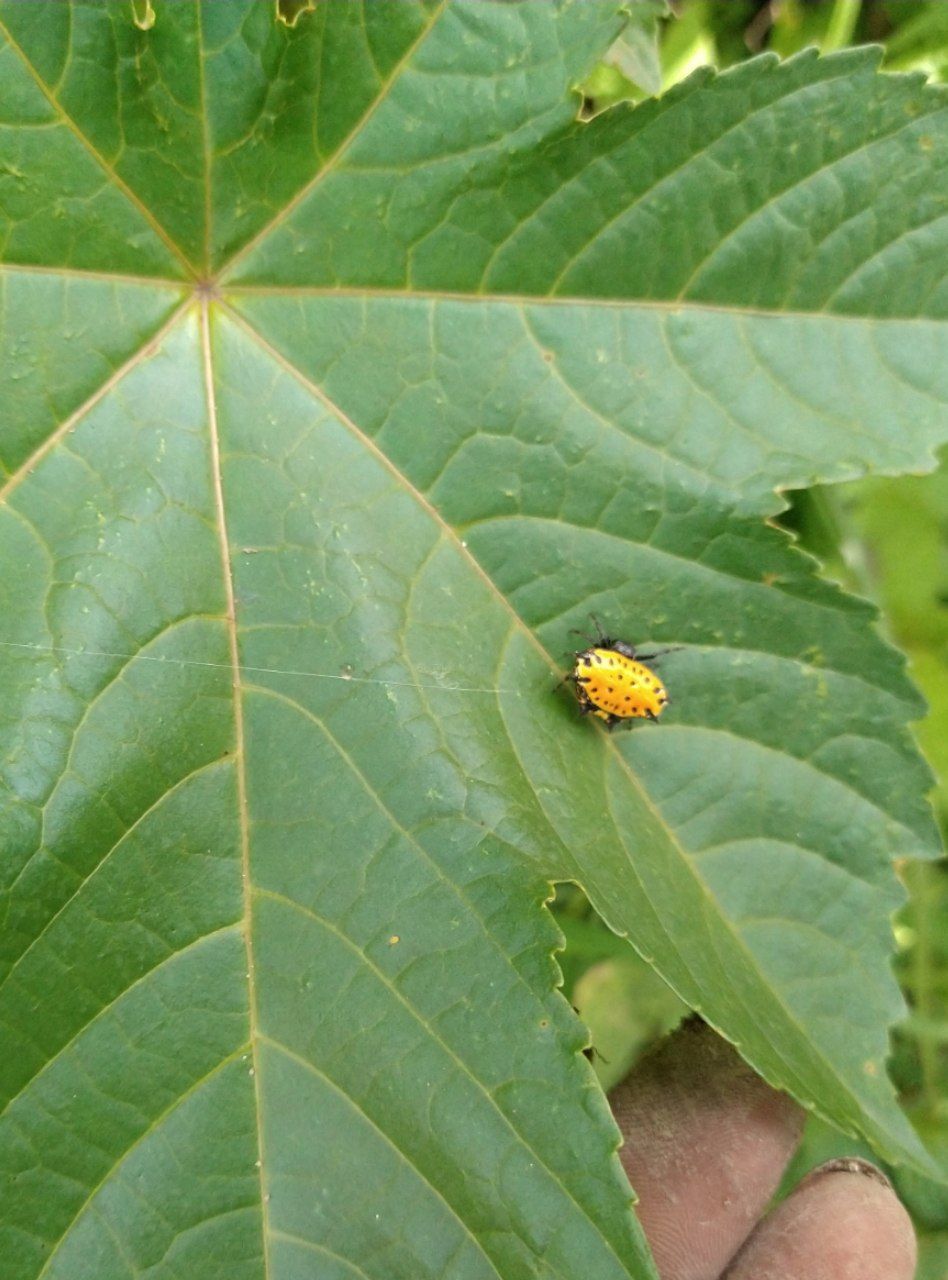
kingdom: Animalia
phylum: Arthropoda
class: Arachnida
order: Araneae
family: Araneidae
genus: Gasteracantha
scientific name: Gasteracantha cancriformis
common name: Orb weavers
